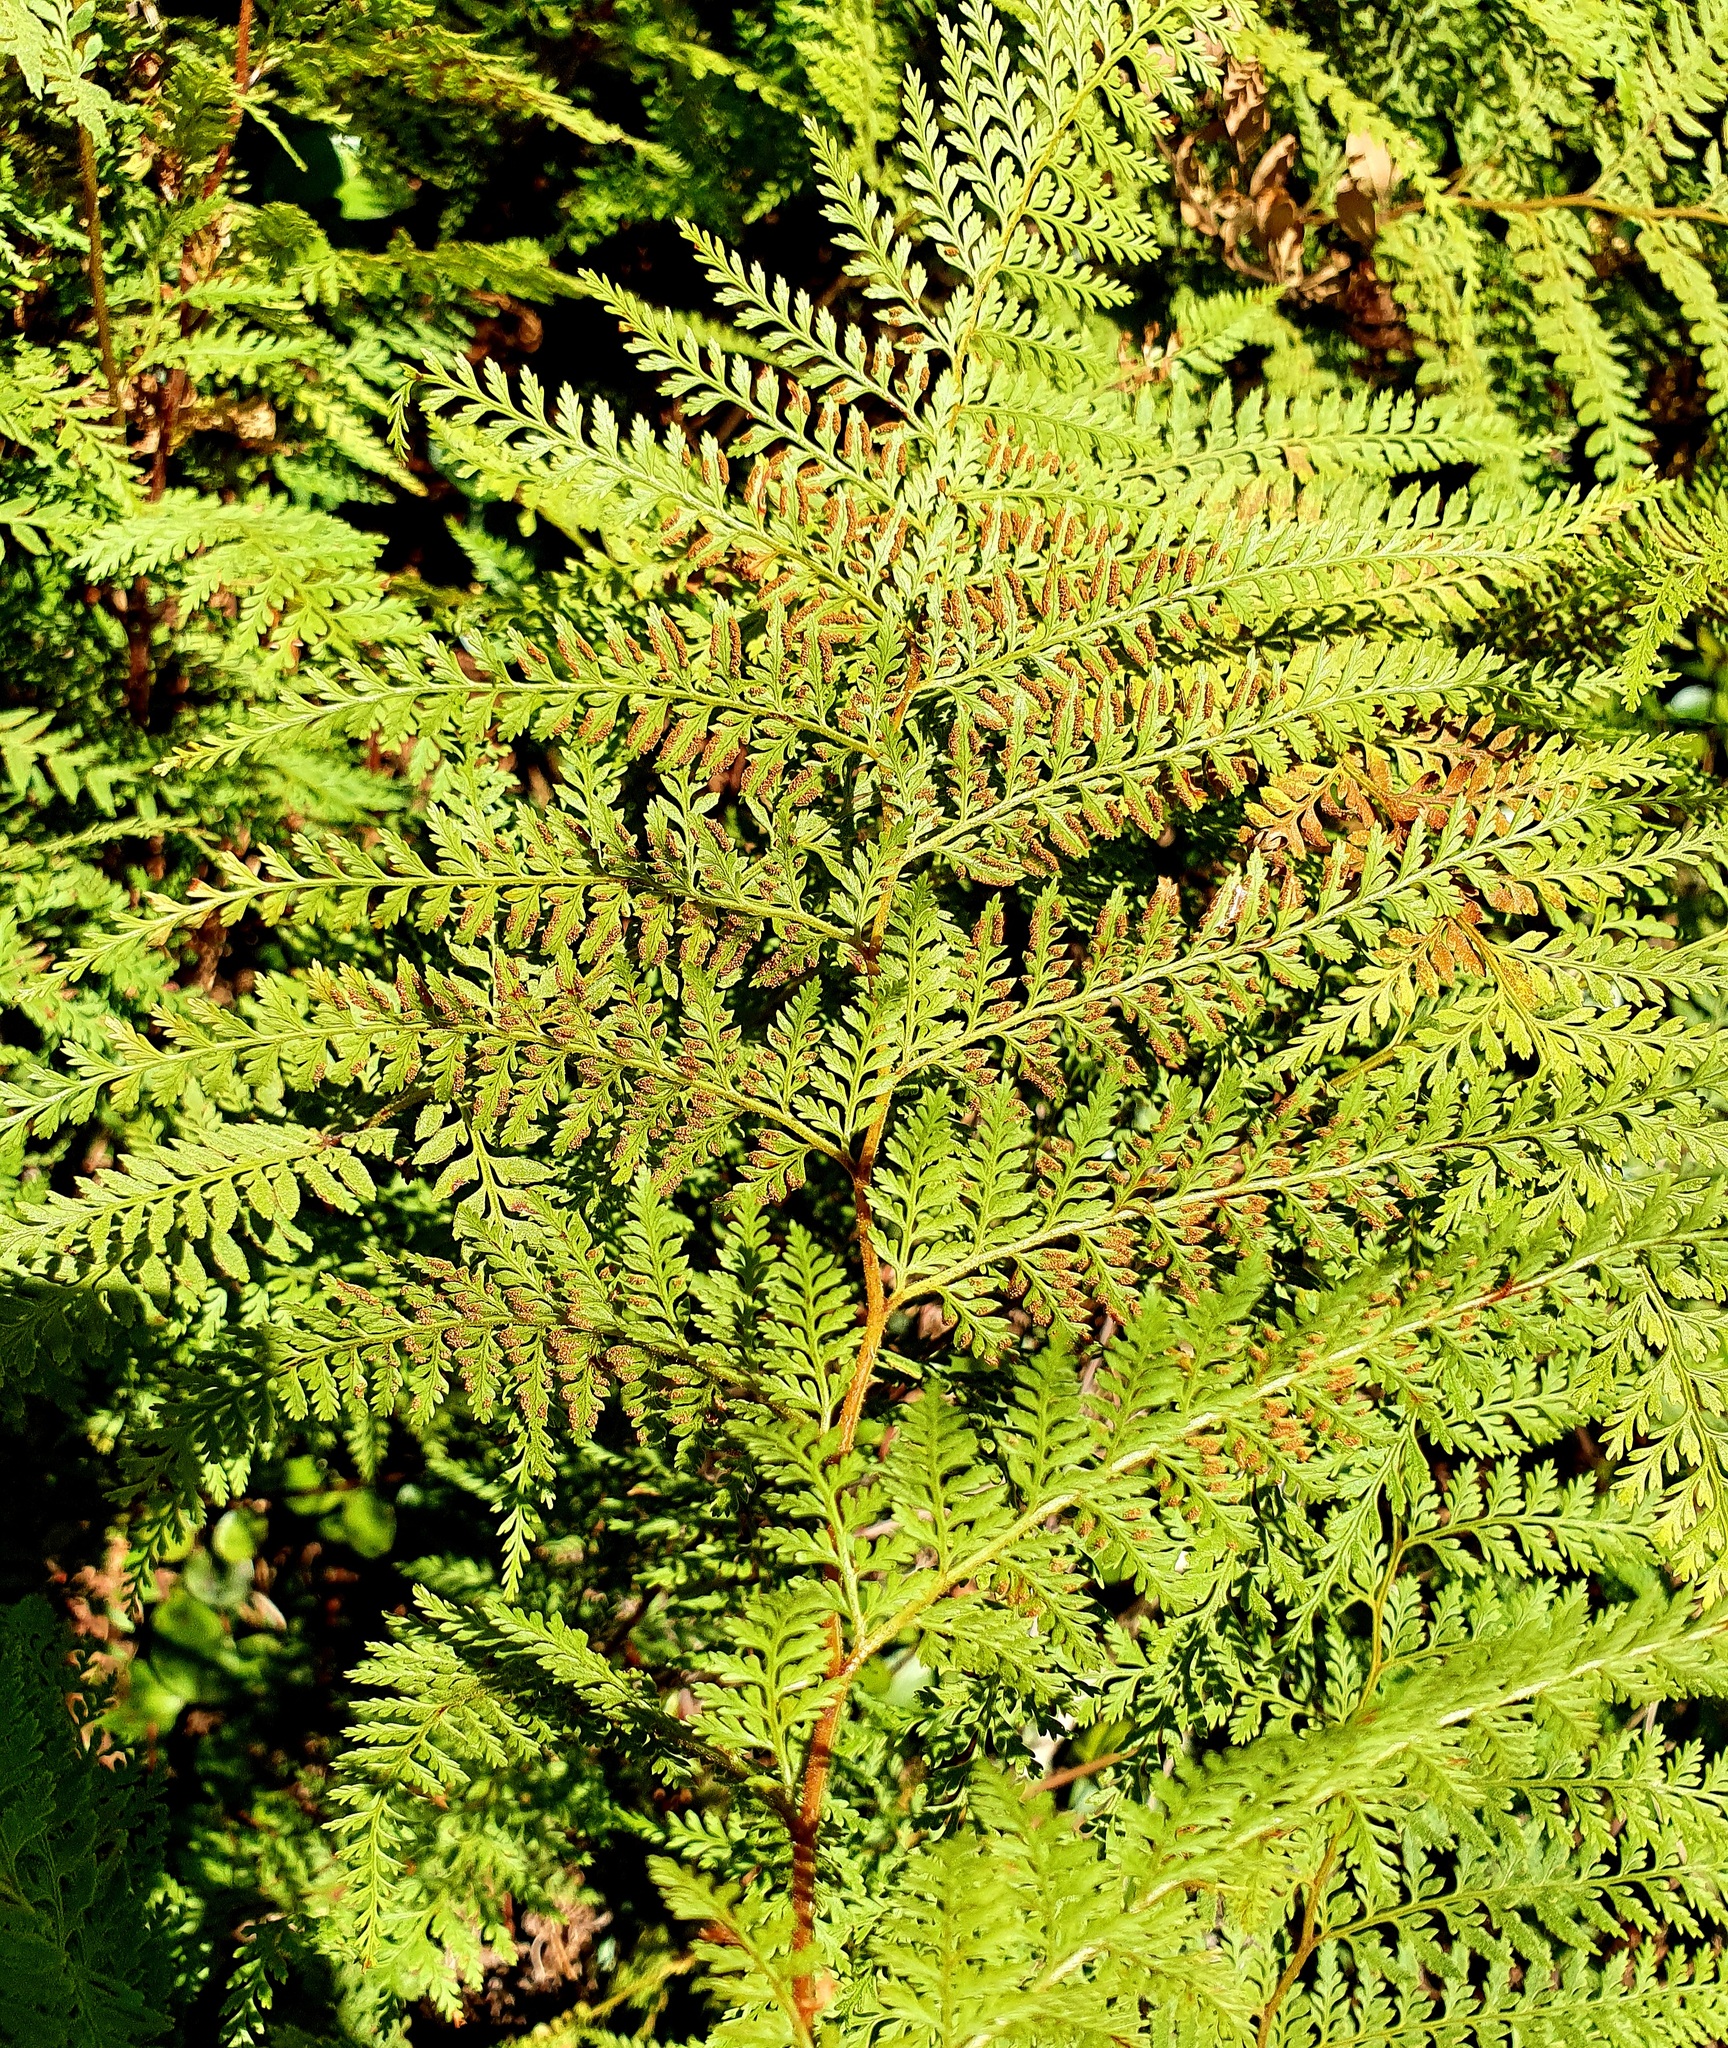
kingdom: Plantae
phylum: Tracheophyta
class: Polypodiopsida
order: Polypodiales
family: Dennstaedtiaceae
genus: Paesia
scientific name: Paesia scaberula
